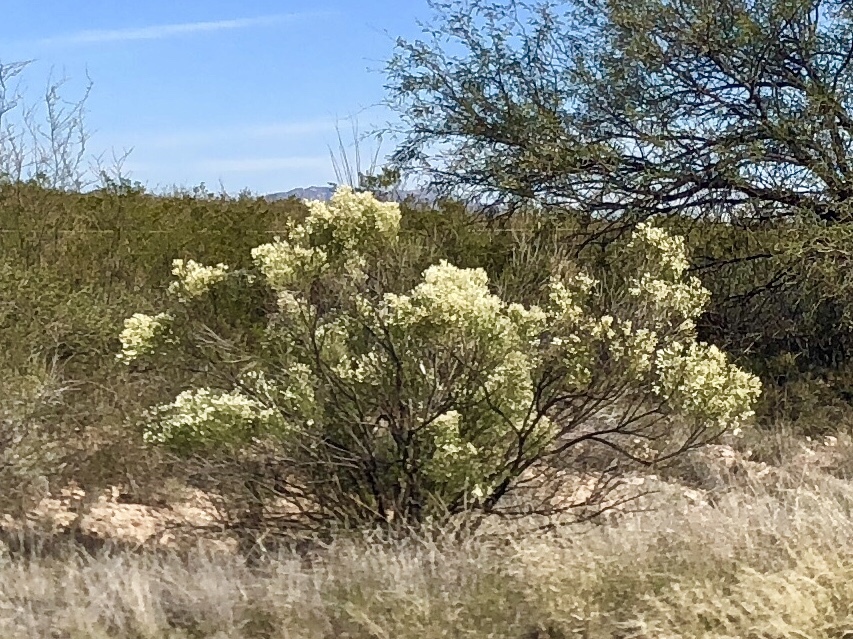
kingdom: Plantae
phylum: Tracheophyta
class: Magnoliopsida
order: Asterales
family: Asteraceae
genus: Baccharis
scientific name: Baccharis sarothroides
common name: Desert-broom
